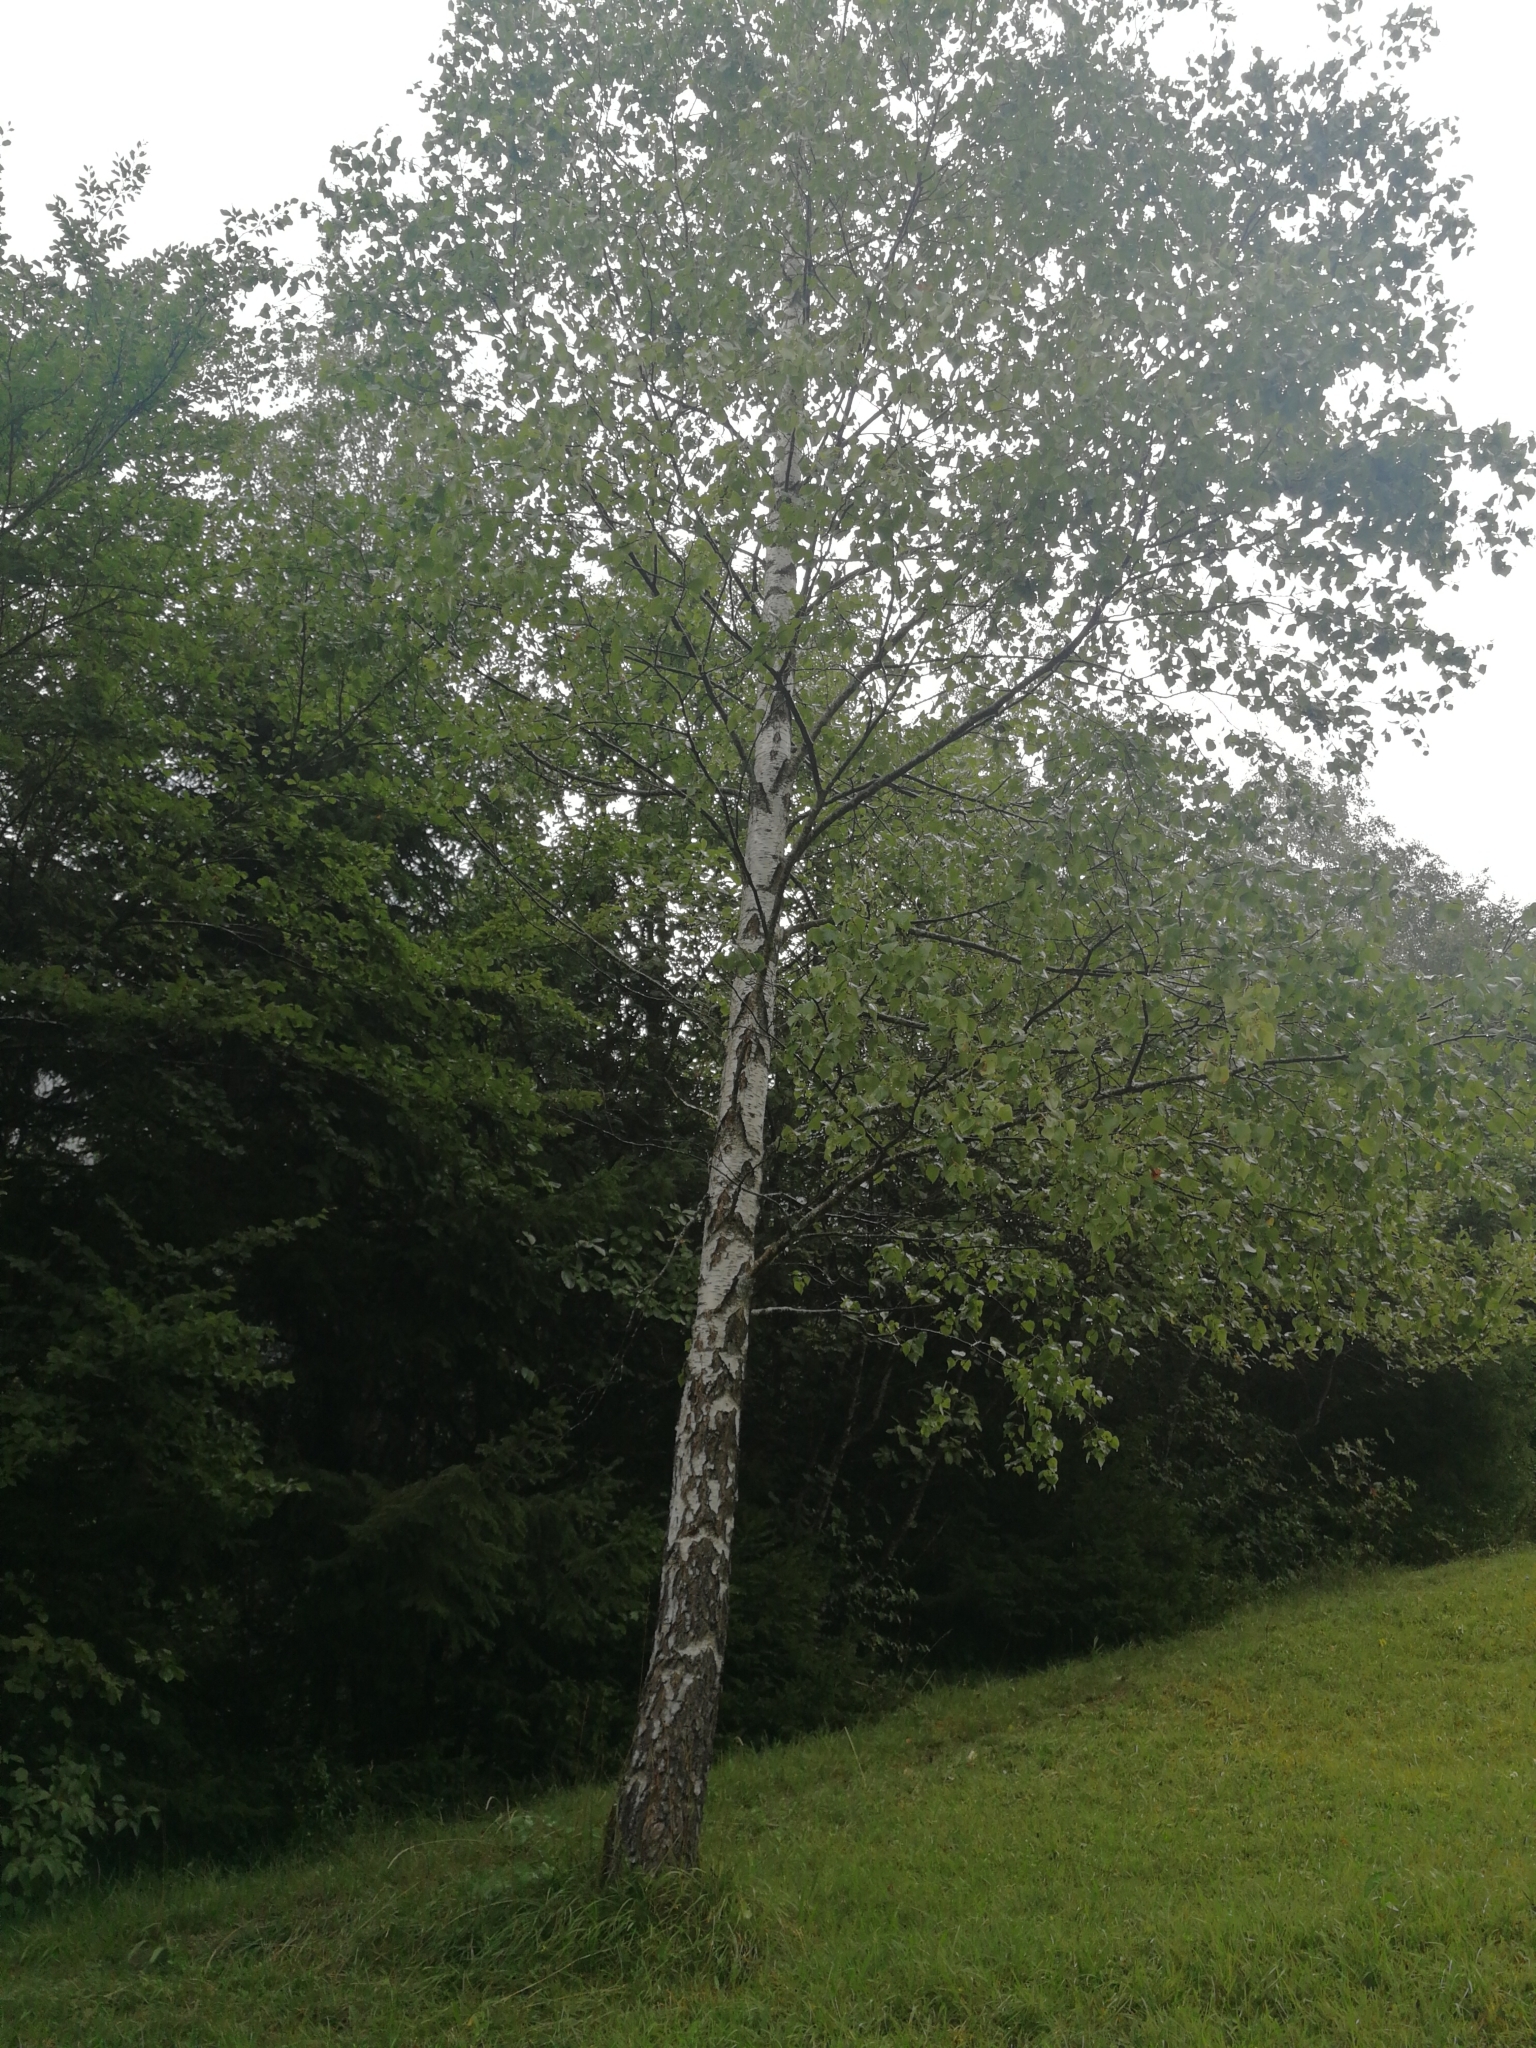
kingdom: Plantae
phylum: Tracheophyta
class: Magnoliopsida
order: Fagales
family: Betulaceae
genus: Betula
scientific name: Betula pendula
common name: Silver birch
